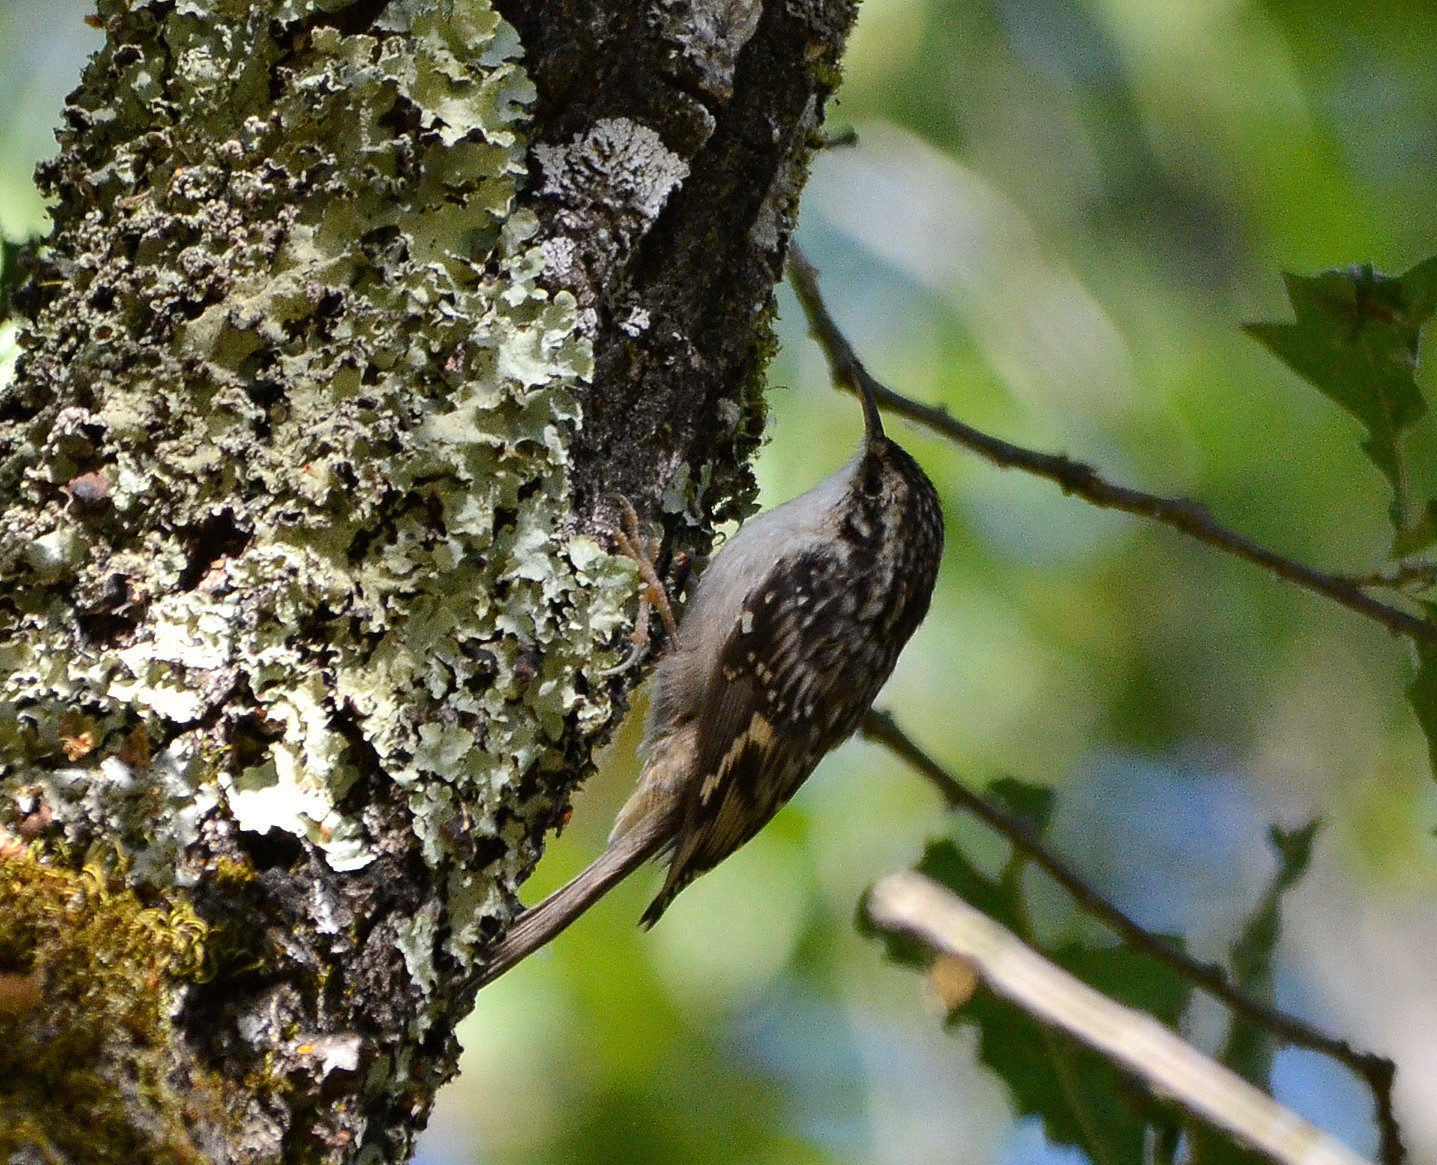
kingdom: Animalia
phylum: Chordata
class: Aves
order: Passeriformes
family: Certhiidae
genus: Certhia
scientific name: Certhia americana
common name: Brown creeper
